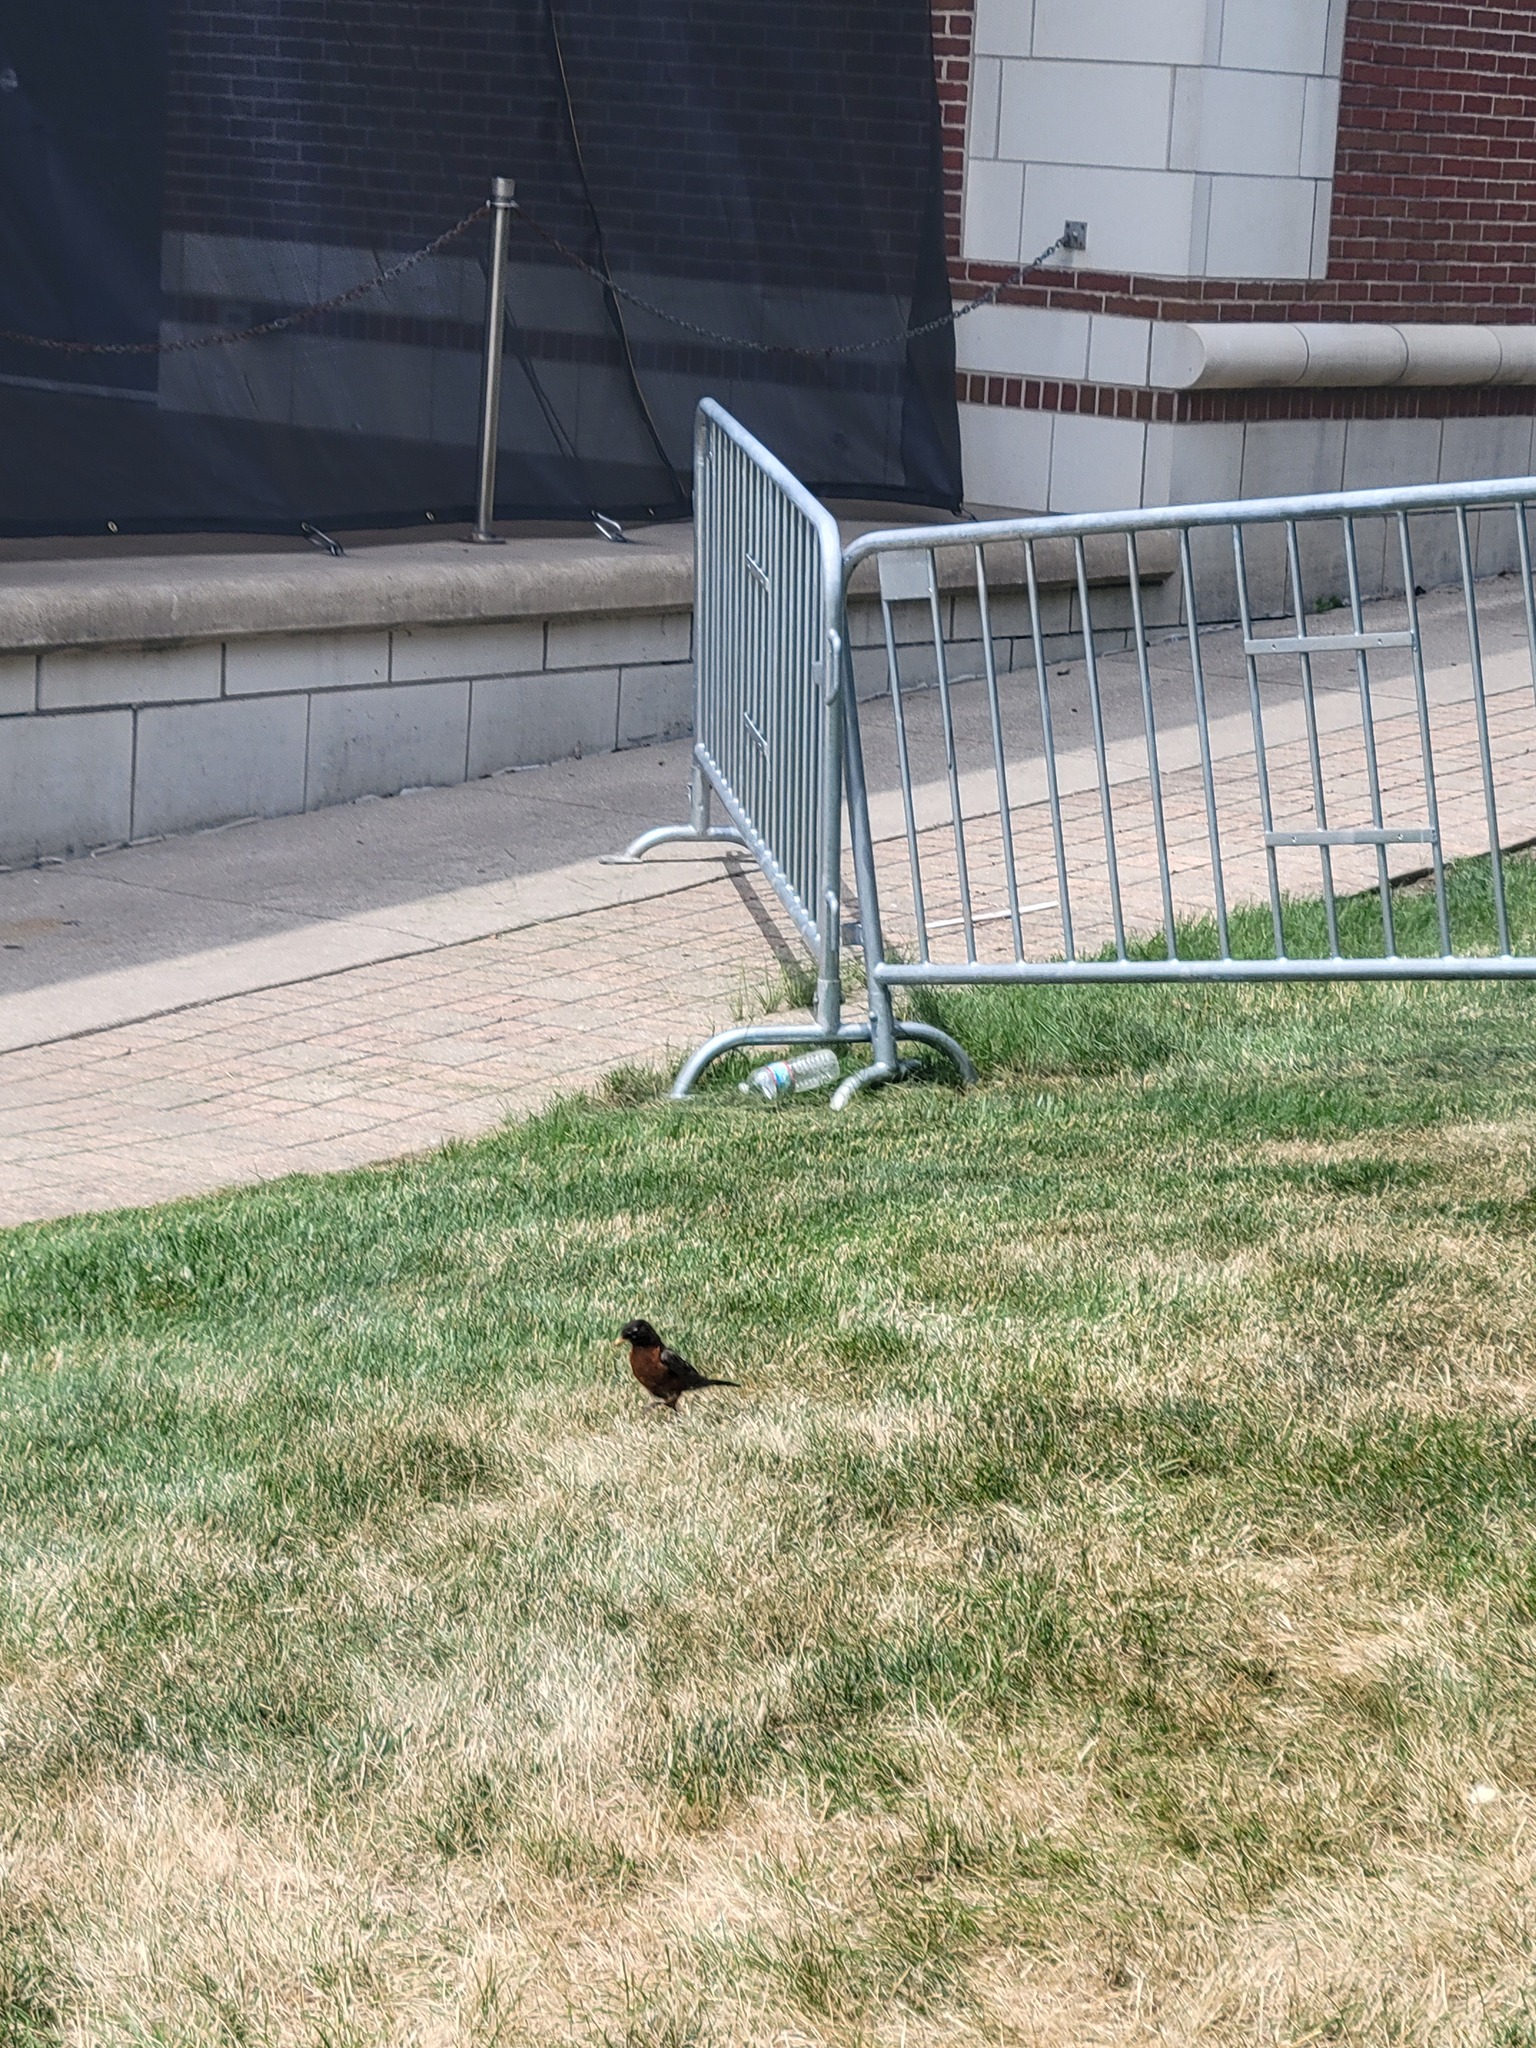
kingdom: Animalia
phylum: Chordata
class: Aves
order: Passeriformes
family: Turdidae
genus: Turdus
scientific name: Turdus migratorius
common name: American robin
